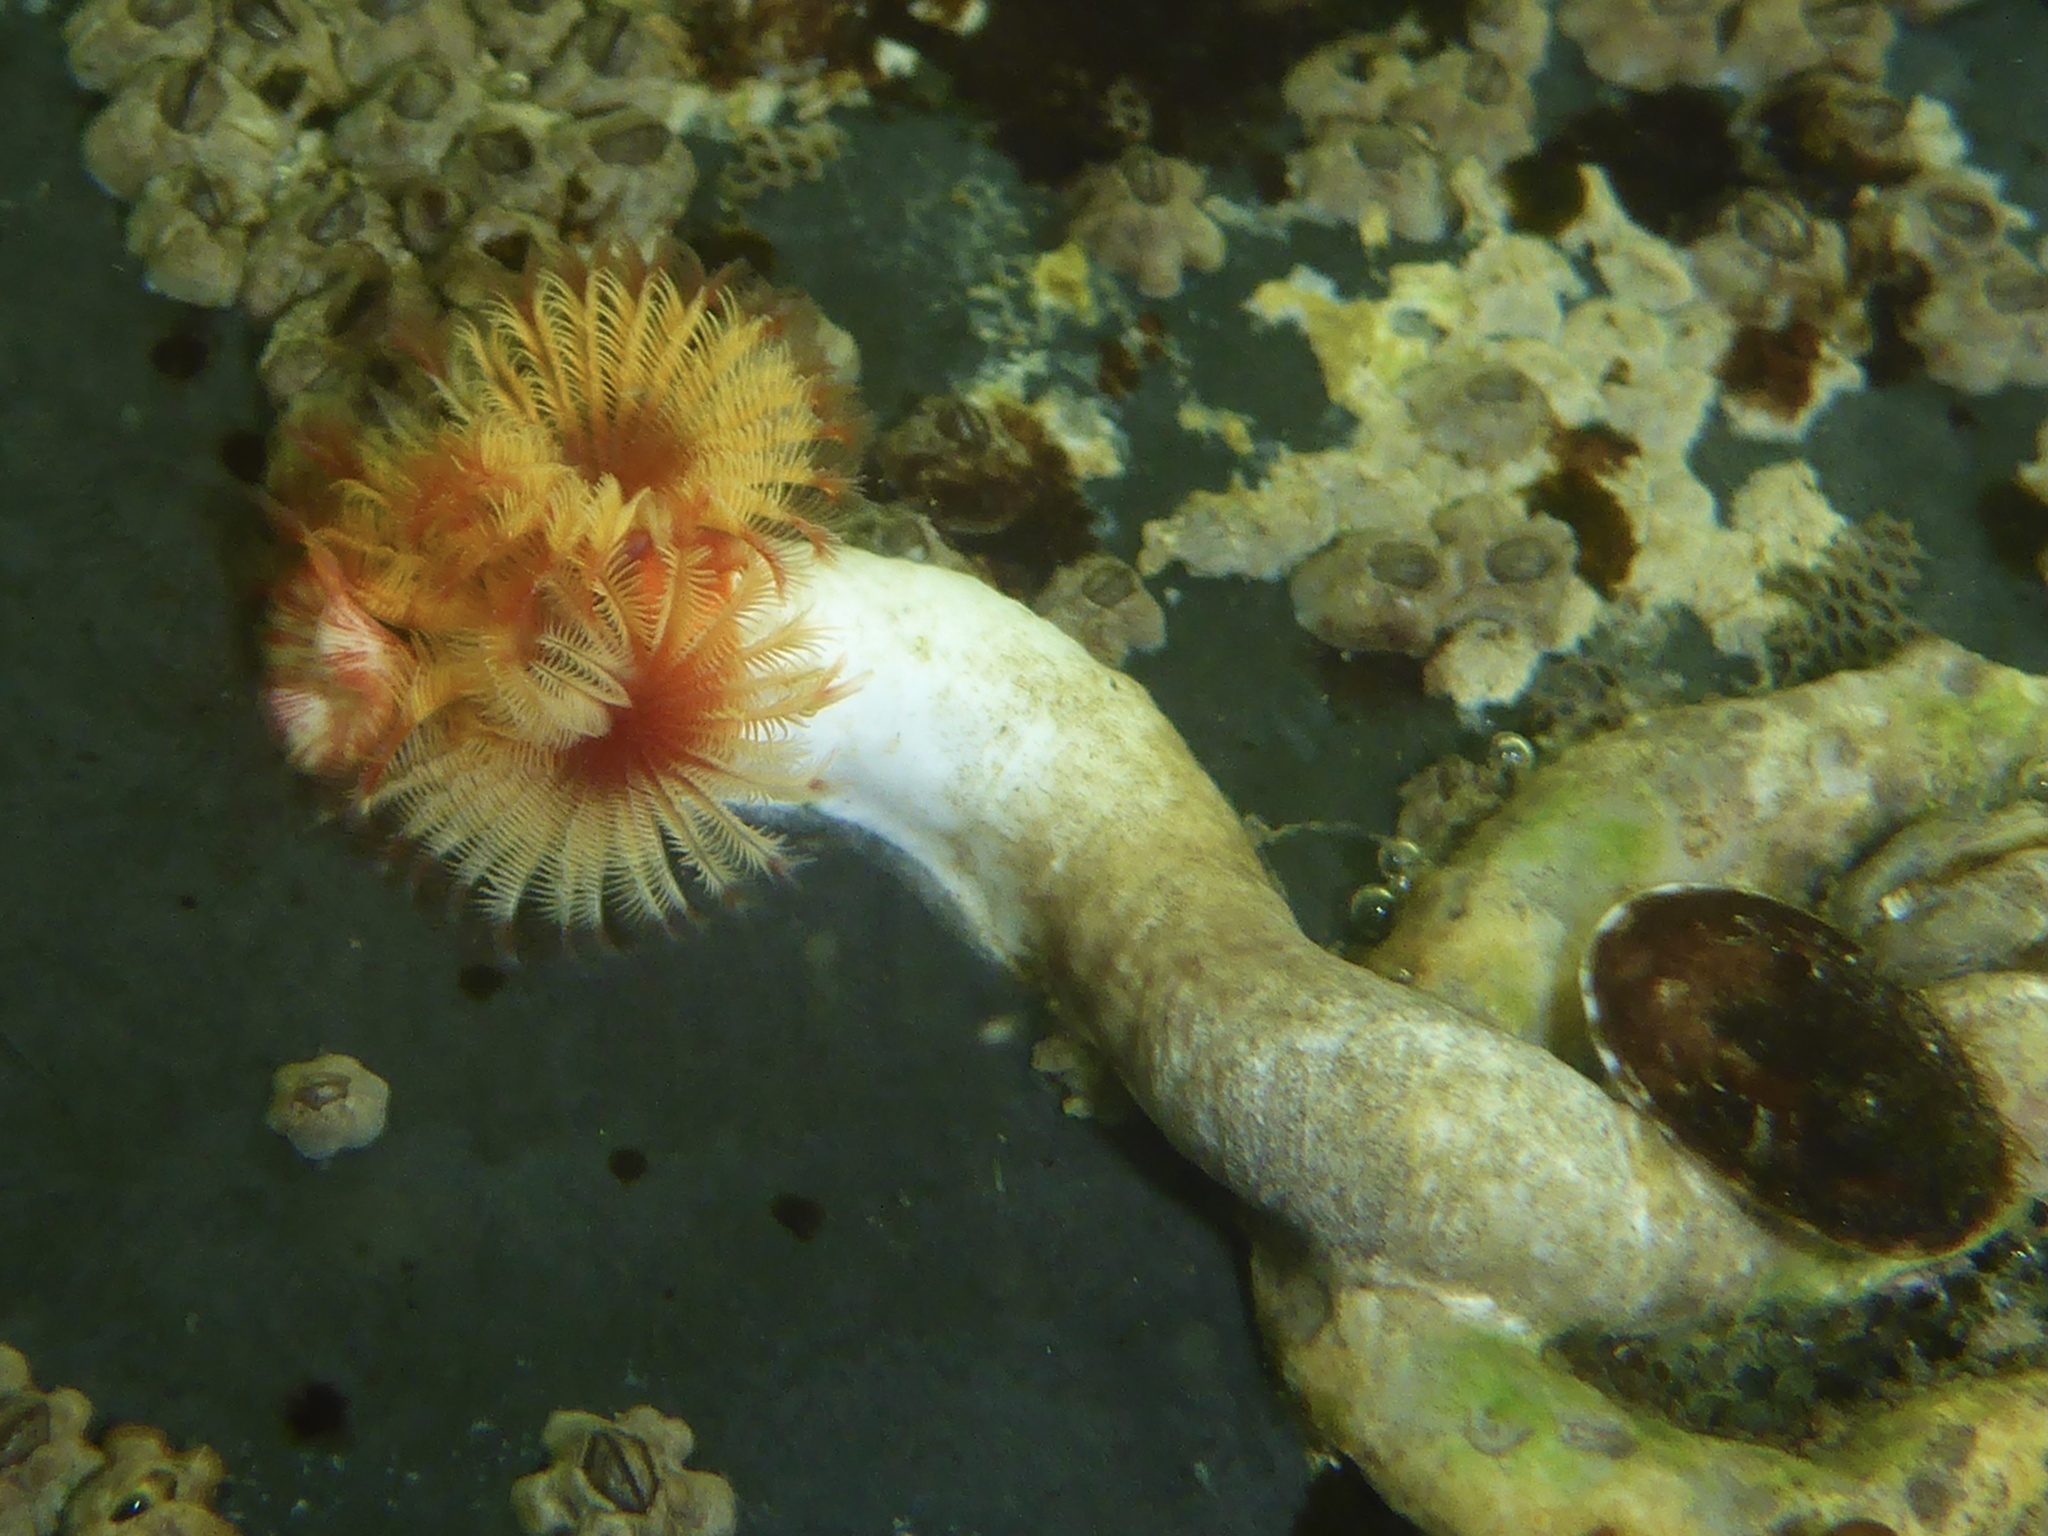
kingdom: Animalia
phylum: Annelida
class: Polychaeta
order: Sabellida
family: Serpulidae
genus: Serpula
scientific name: Serpula columbiana
